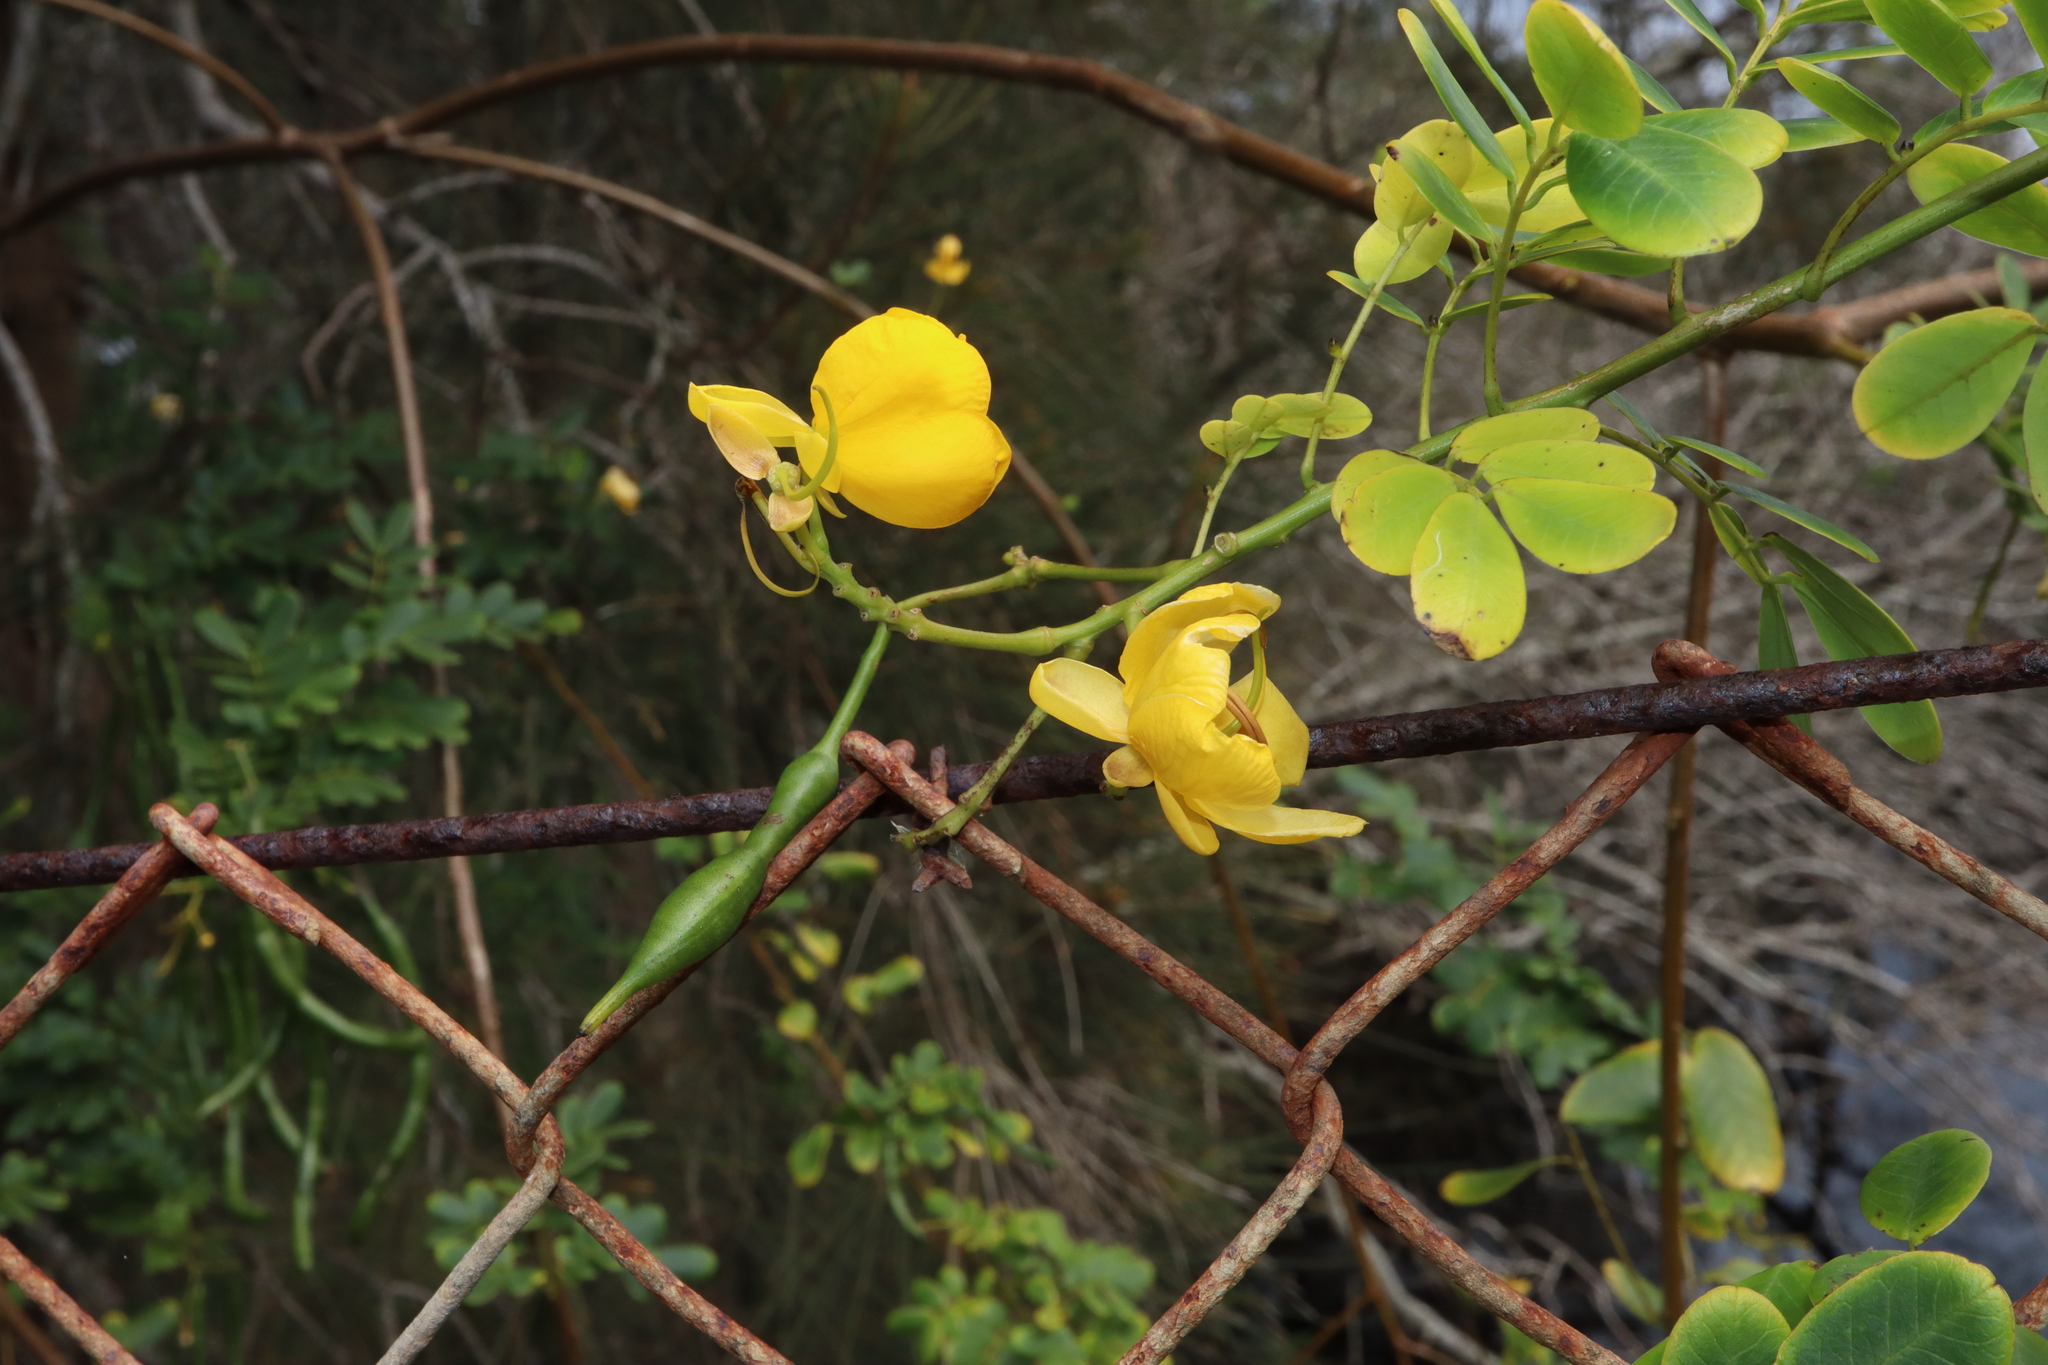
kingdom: Plantae
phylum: Tracheophyta
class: Magnoliopsida
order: Fabales
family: Fabaceae
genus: Senna
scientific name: Senna pendula
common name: Easter cassia
